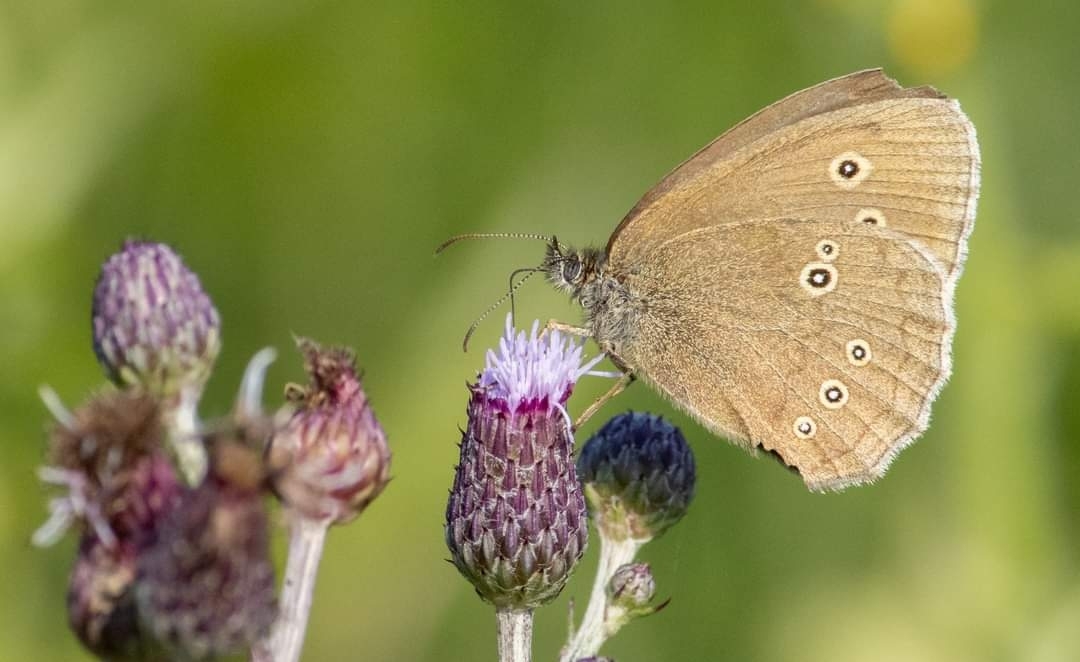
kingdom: Animalia
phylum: Arthropoda
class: Insecta
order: Lepidoptera
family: Nymphalidae
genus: Aphantopus
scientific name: Aphantopus hyperantus
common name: Ringlet
